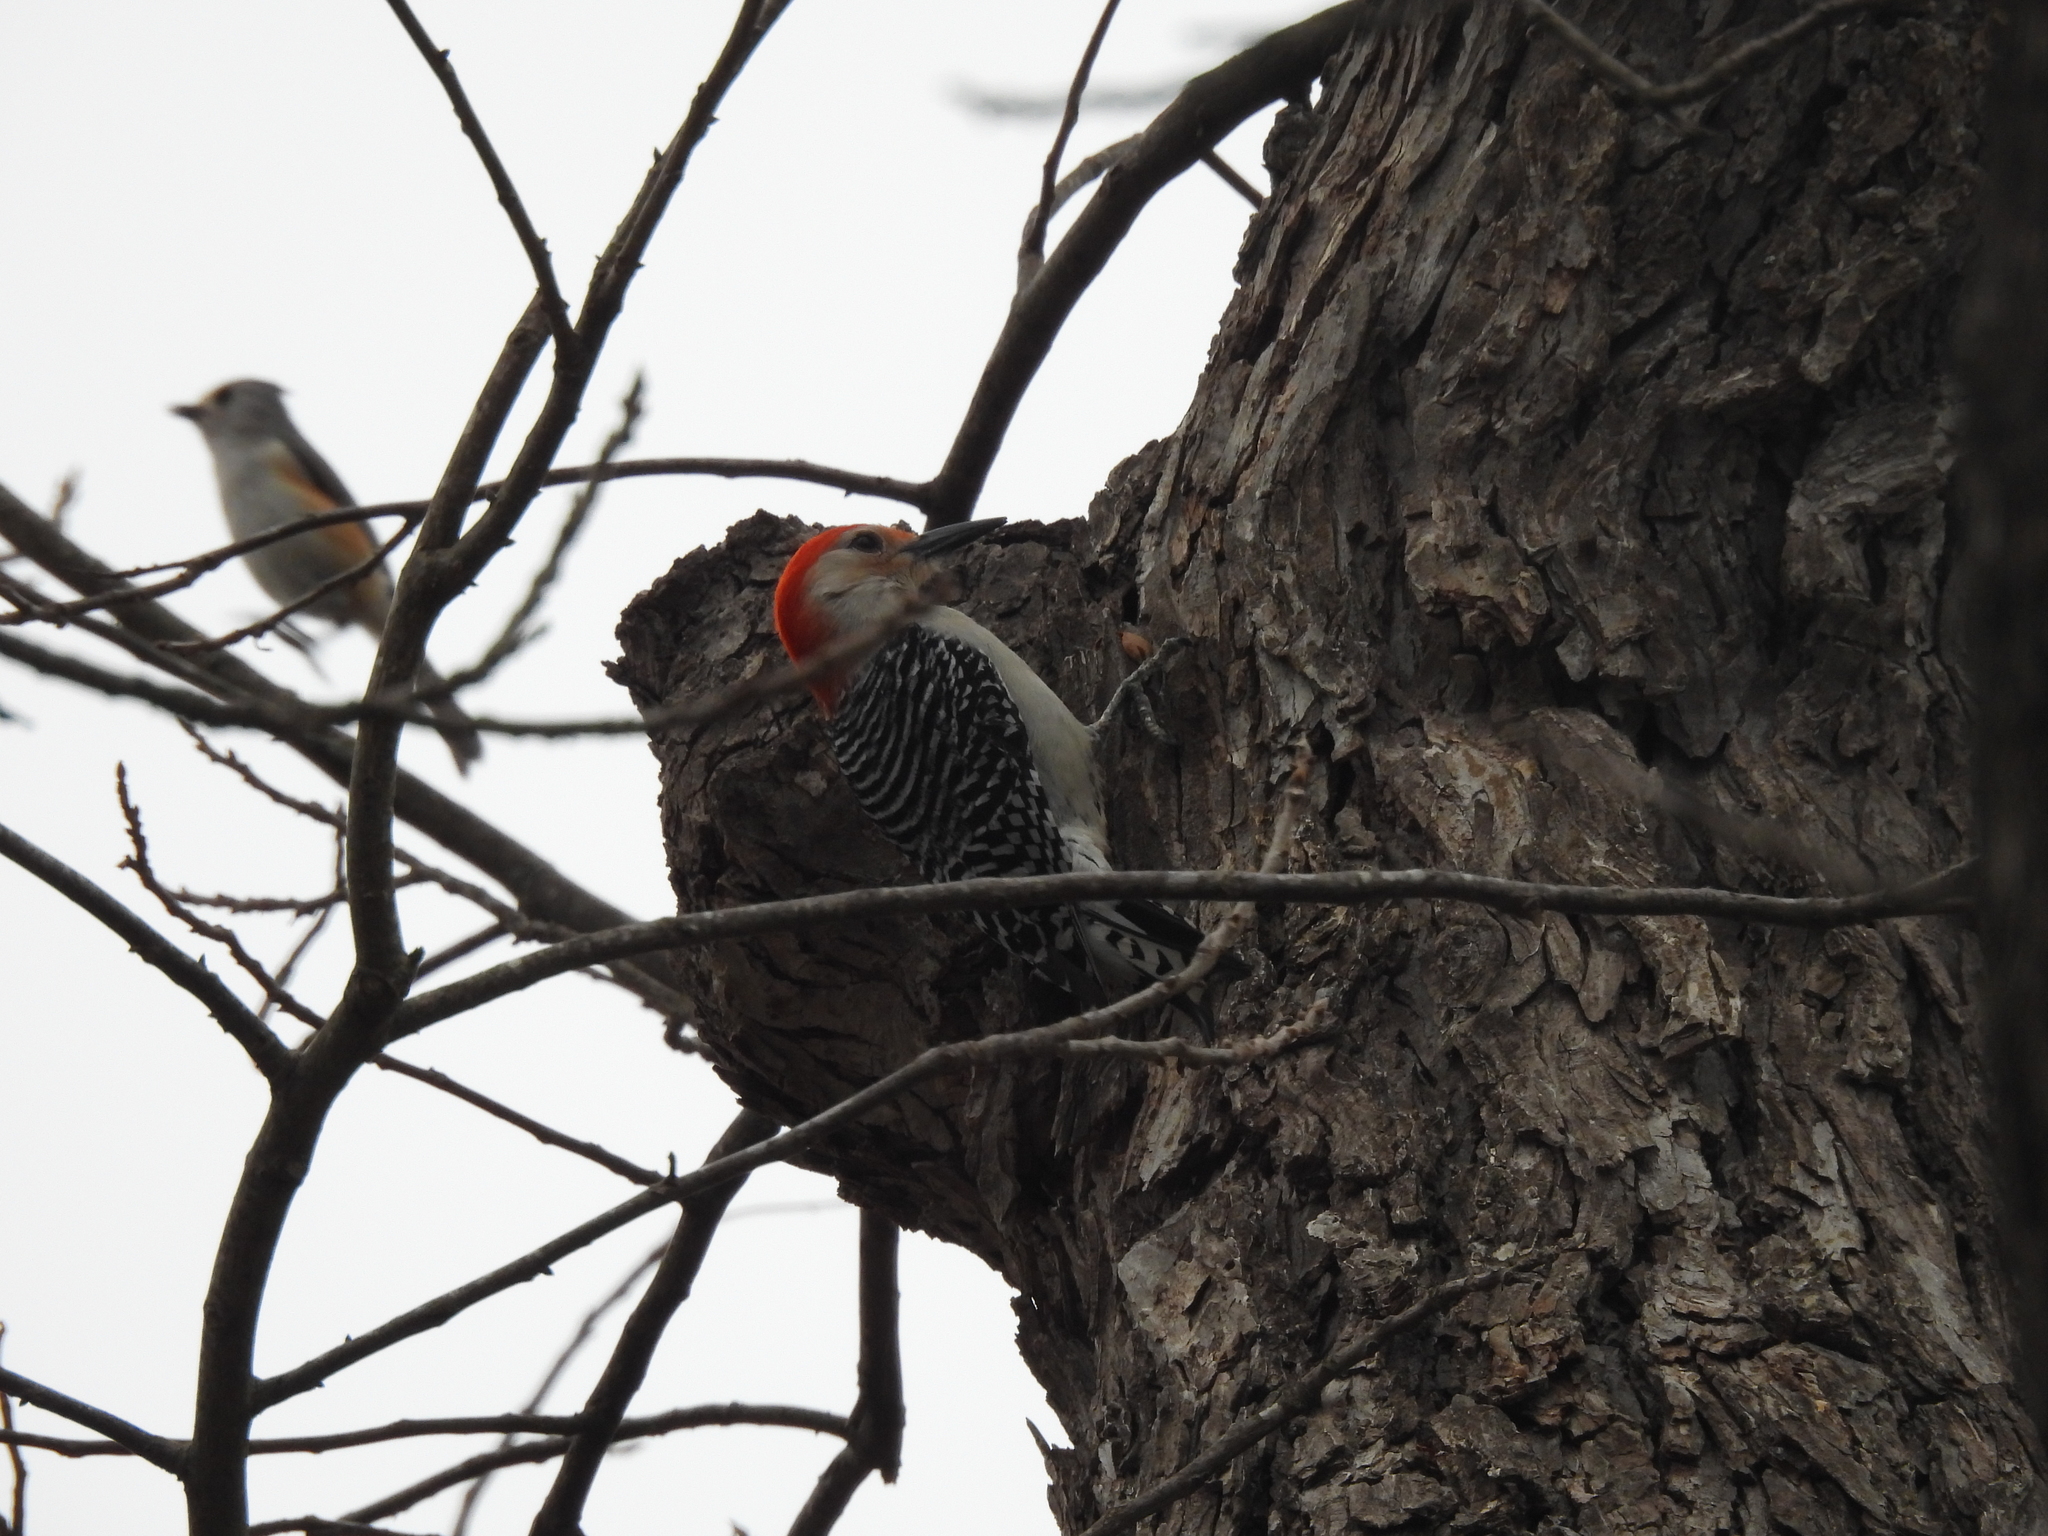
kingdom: Animalia
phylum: Chordata
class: Aves
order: Piciformes
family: Picidae
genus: Melanerpes
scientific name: Melanerpes carolinus
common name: Red-bellied woodpecker
